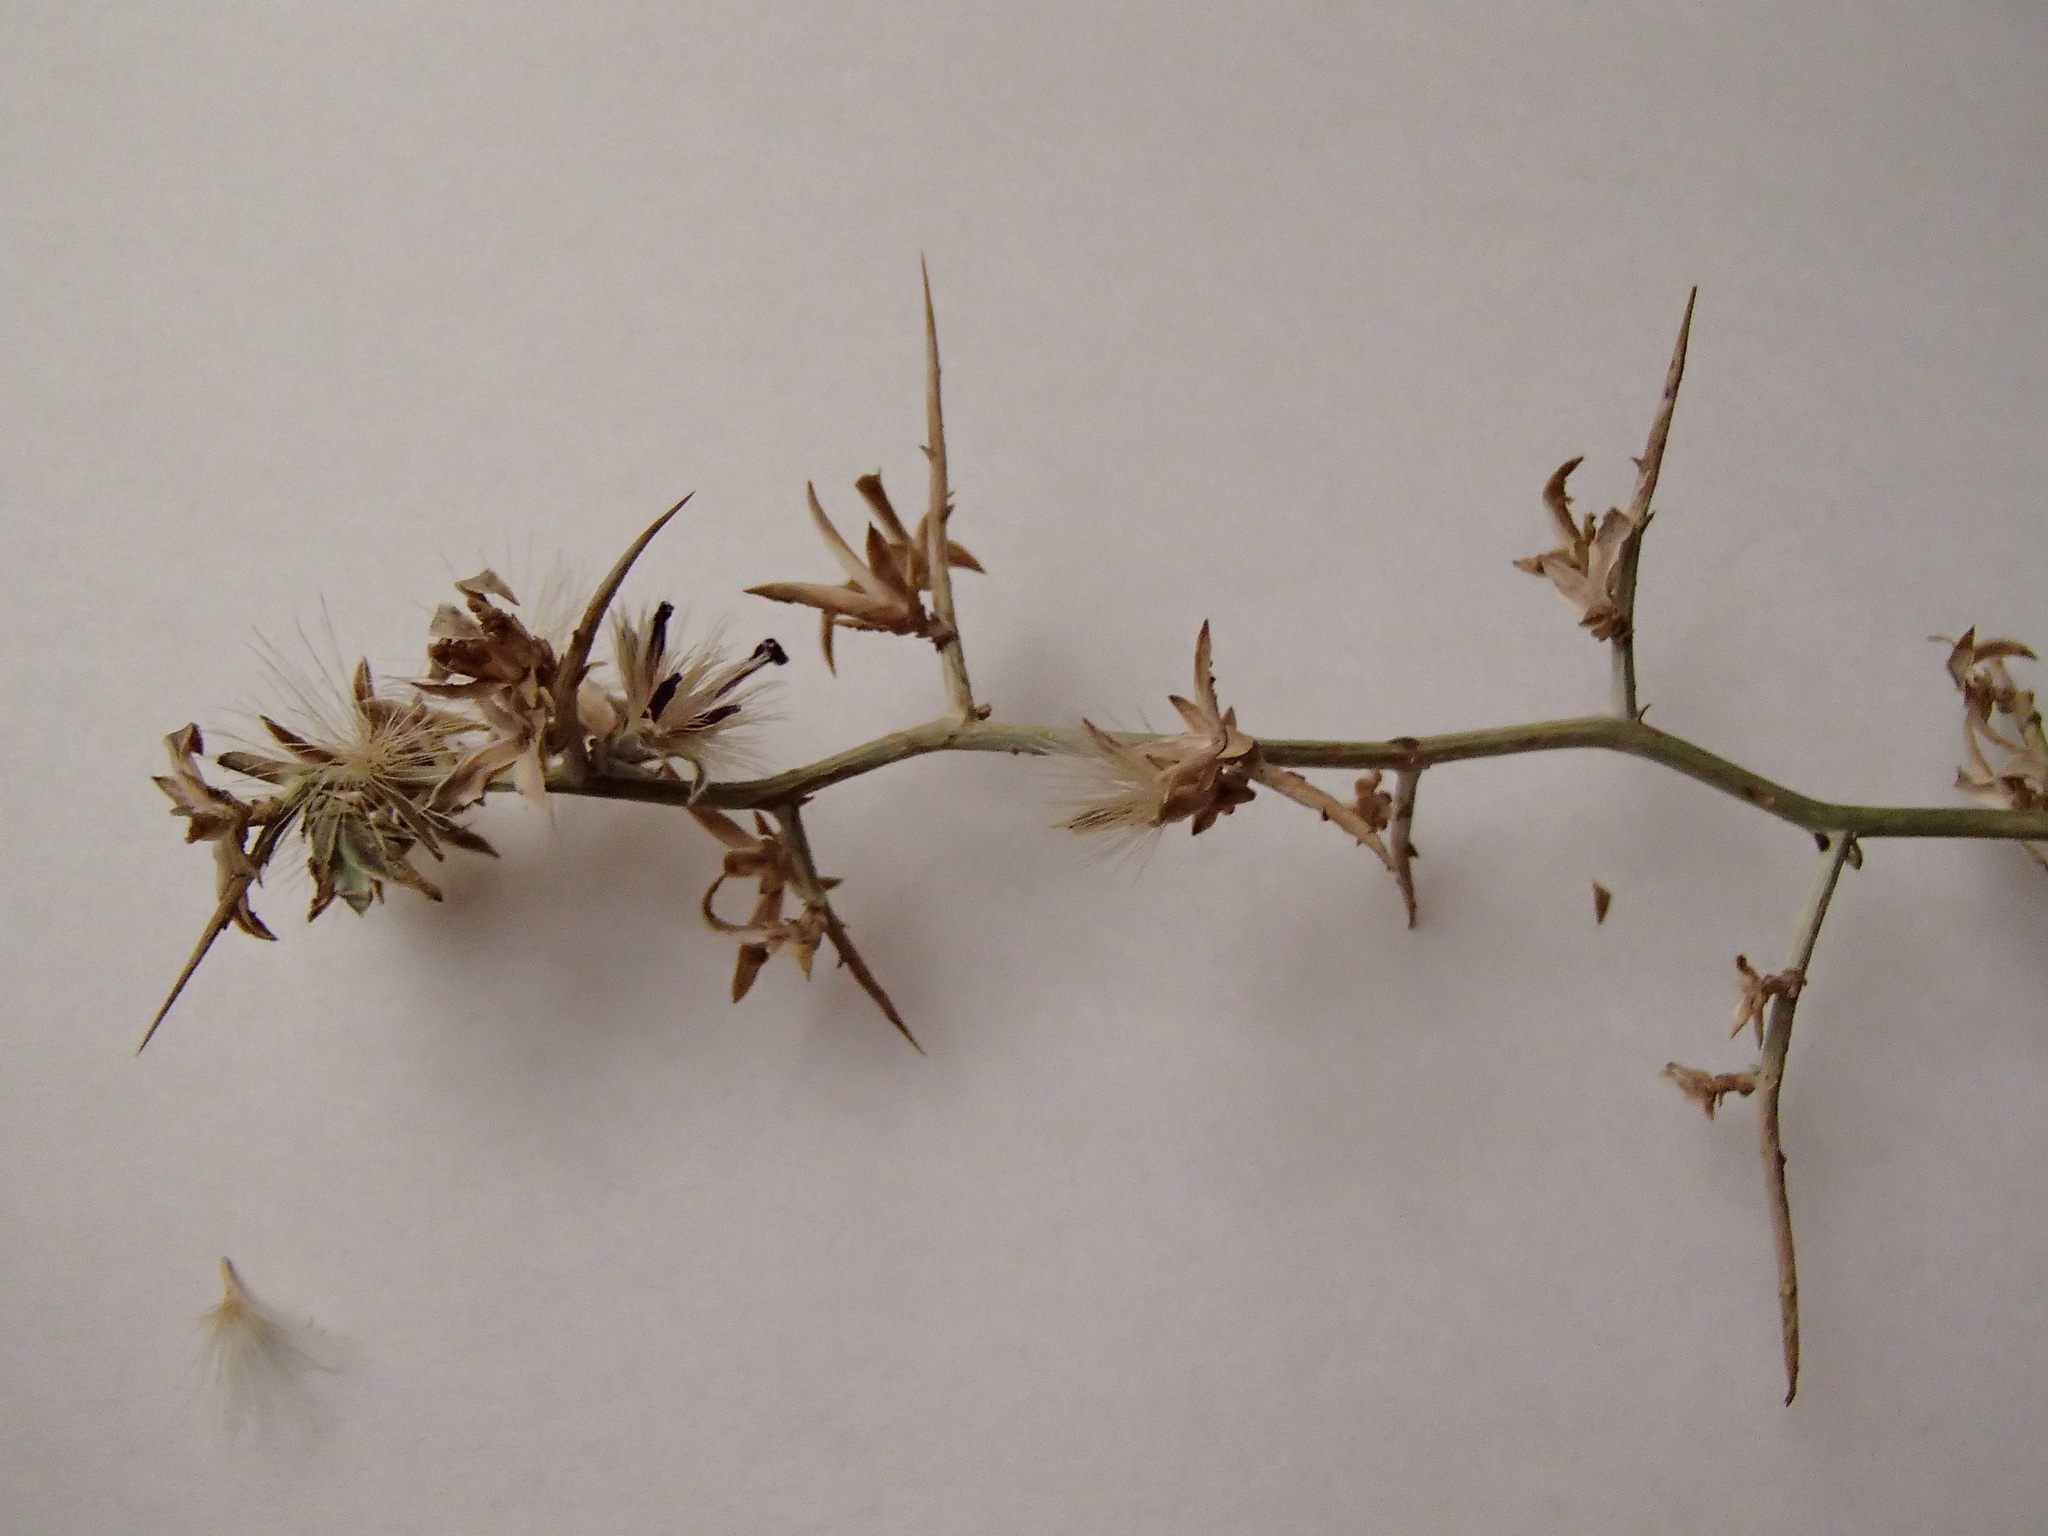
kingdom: Plantae
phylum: Tracheophyta
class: Magnoliopsida
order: Asterales
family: Asteraceae
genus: Pleiacanthus
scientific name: Pleiacanthus spinosus
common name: Thorny skeleton-weed
